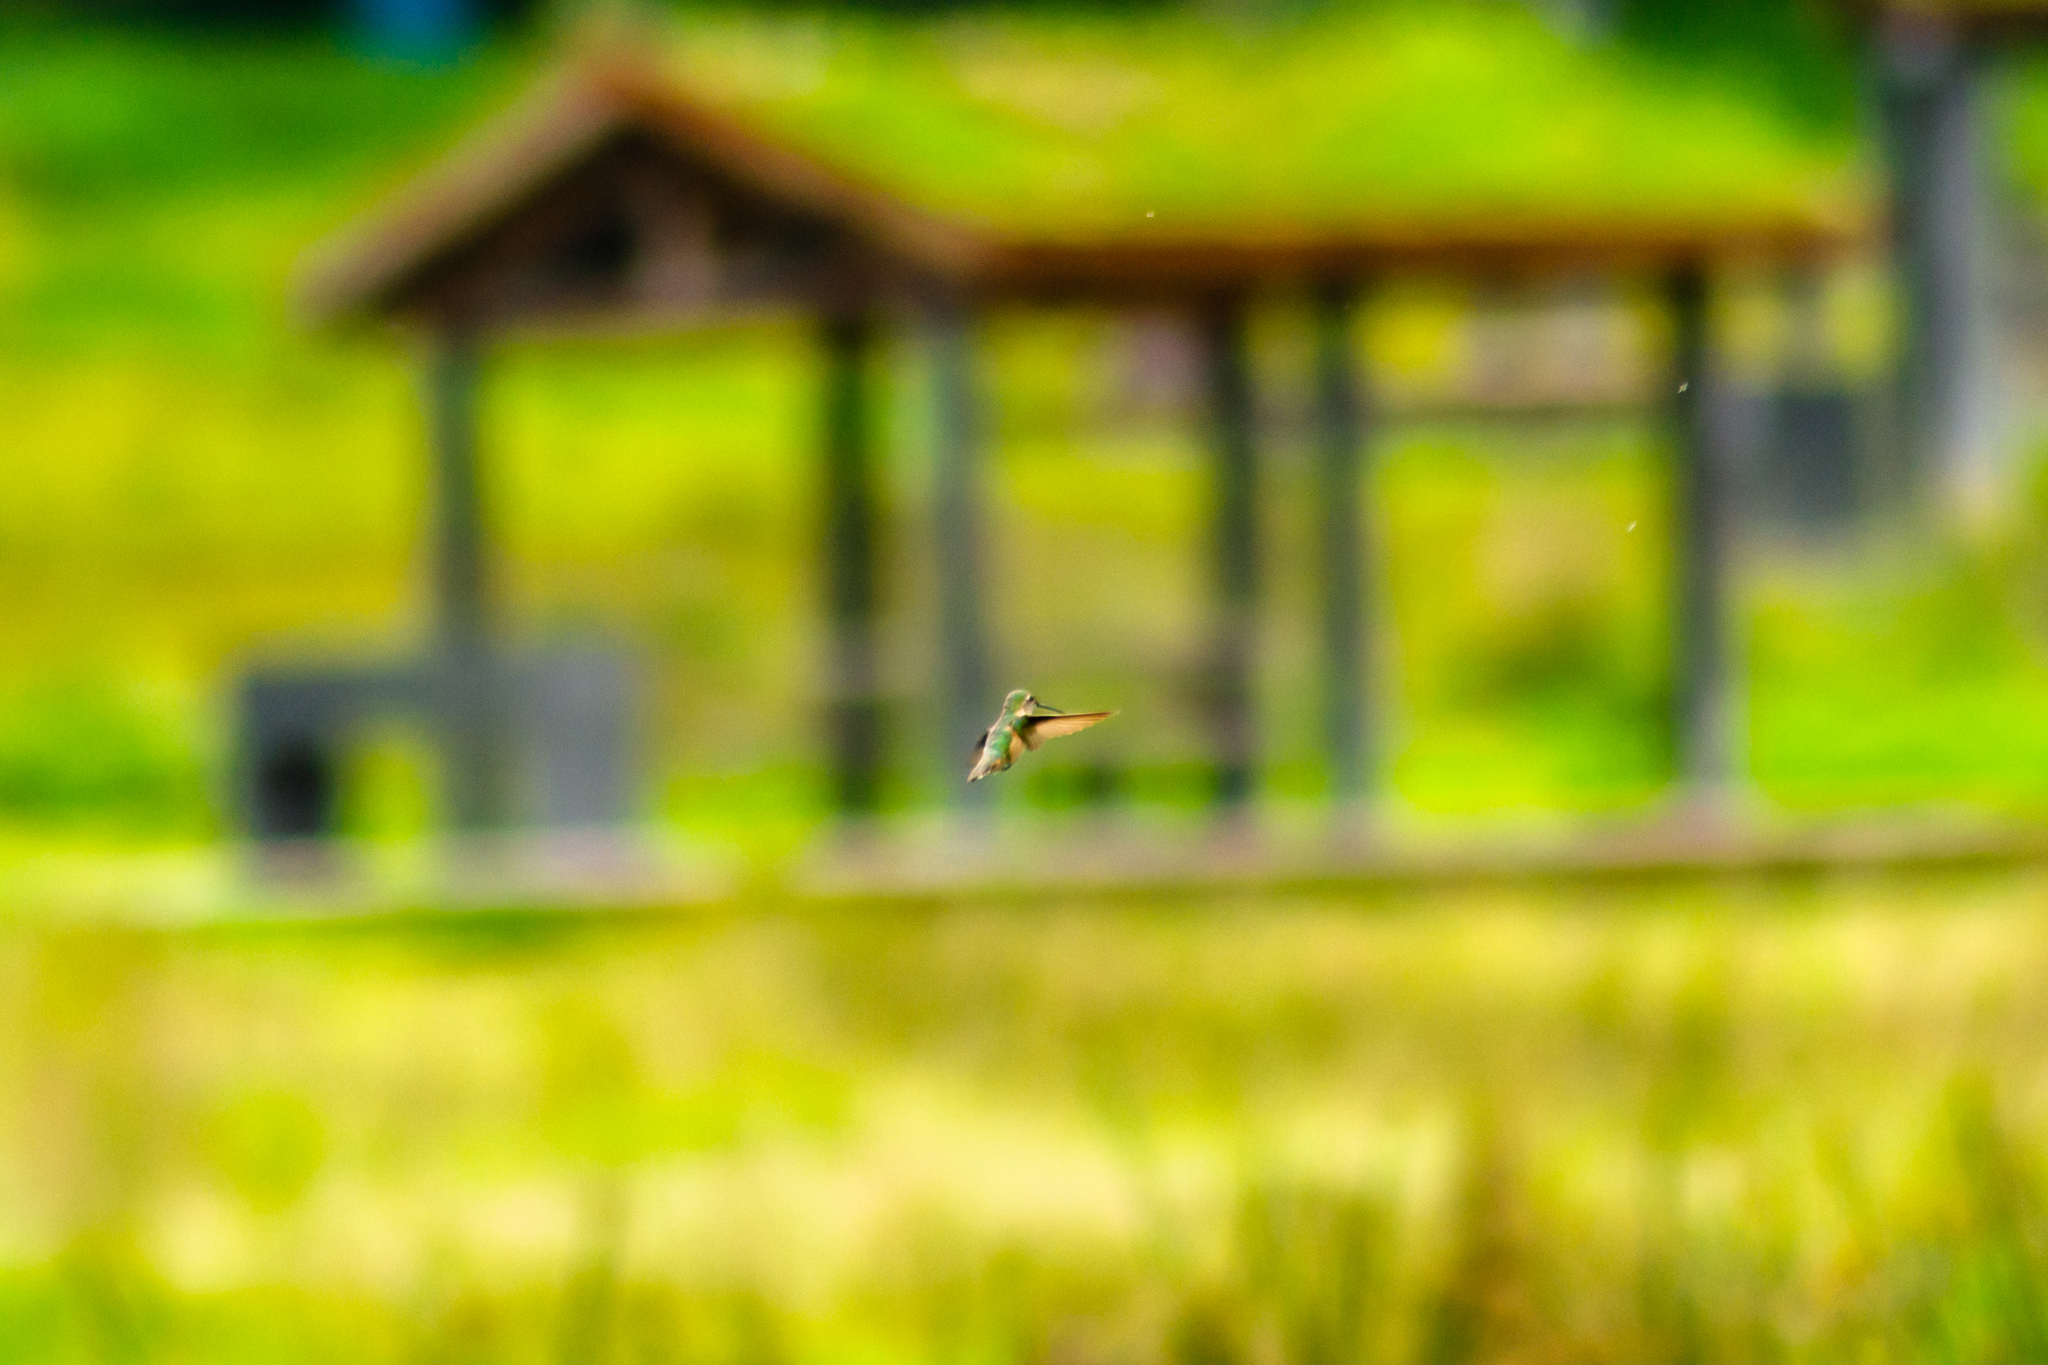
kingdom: Animalia
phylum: Chordata
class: Aves
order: Apodiformes
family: Trochilidae
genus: Selasphorus
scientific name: Selasphorus platycercus
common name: Broad-tailed hummingbird
